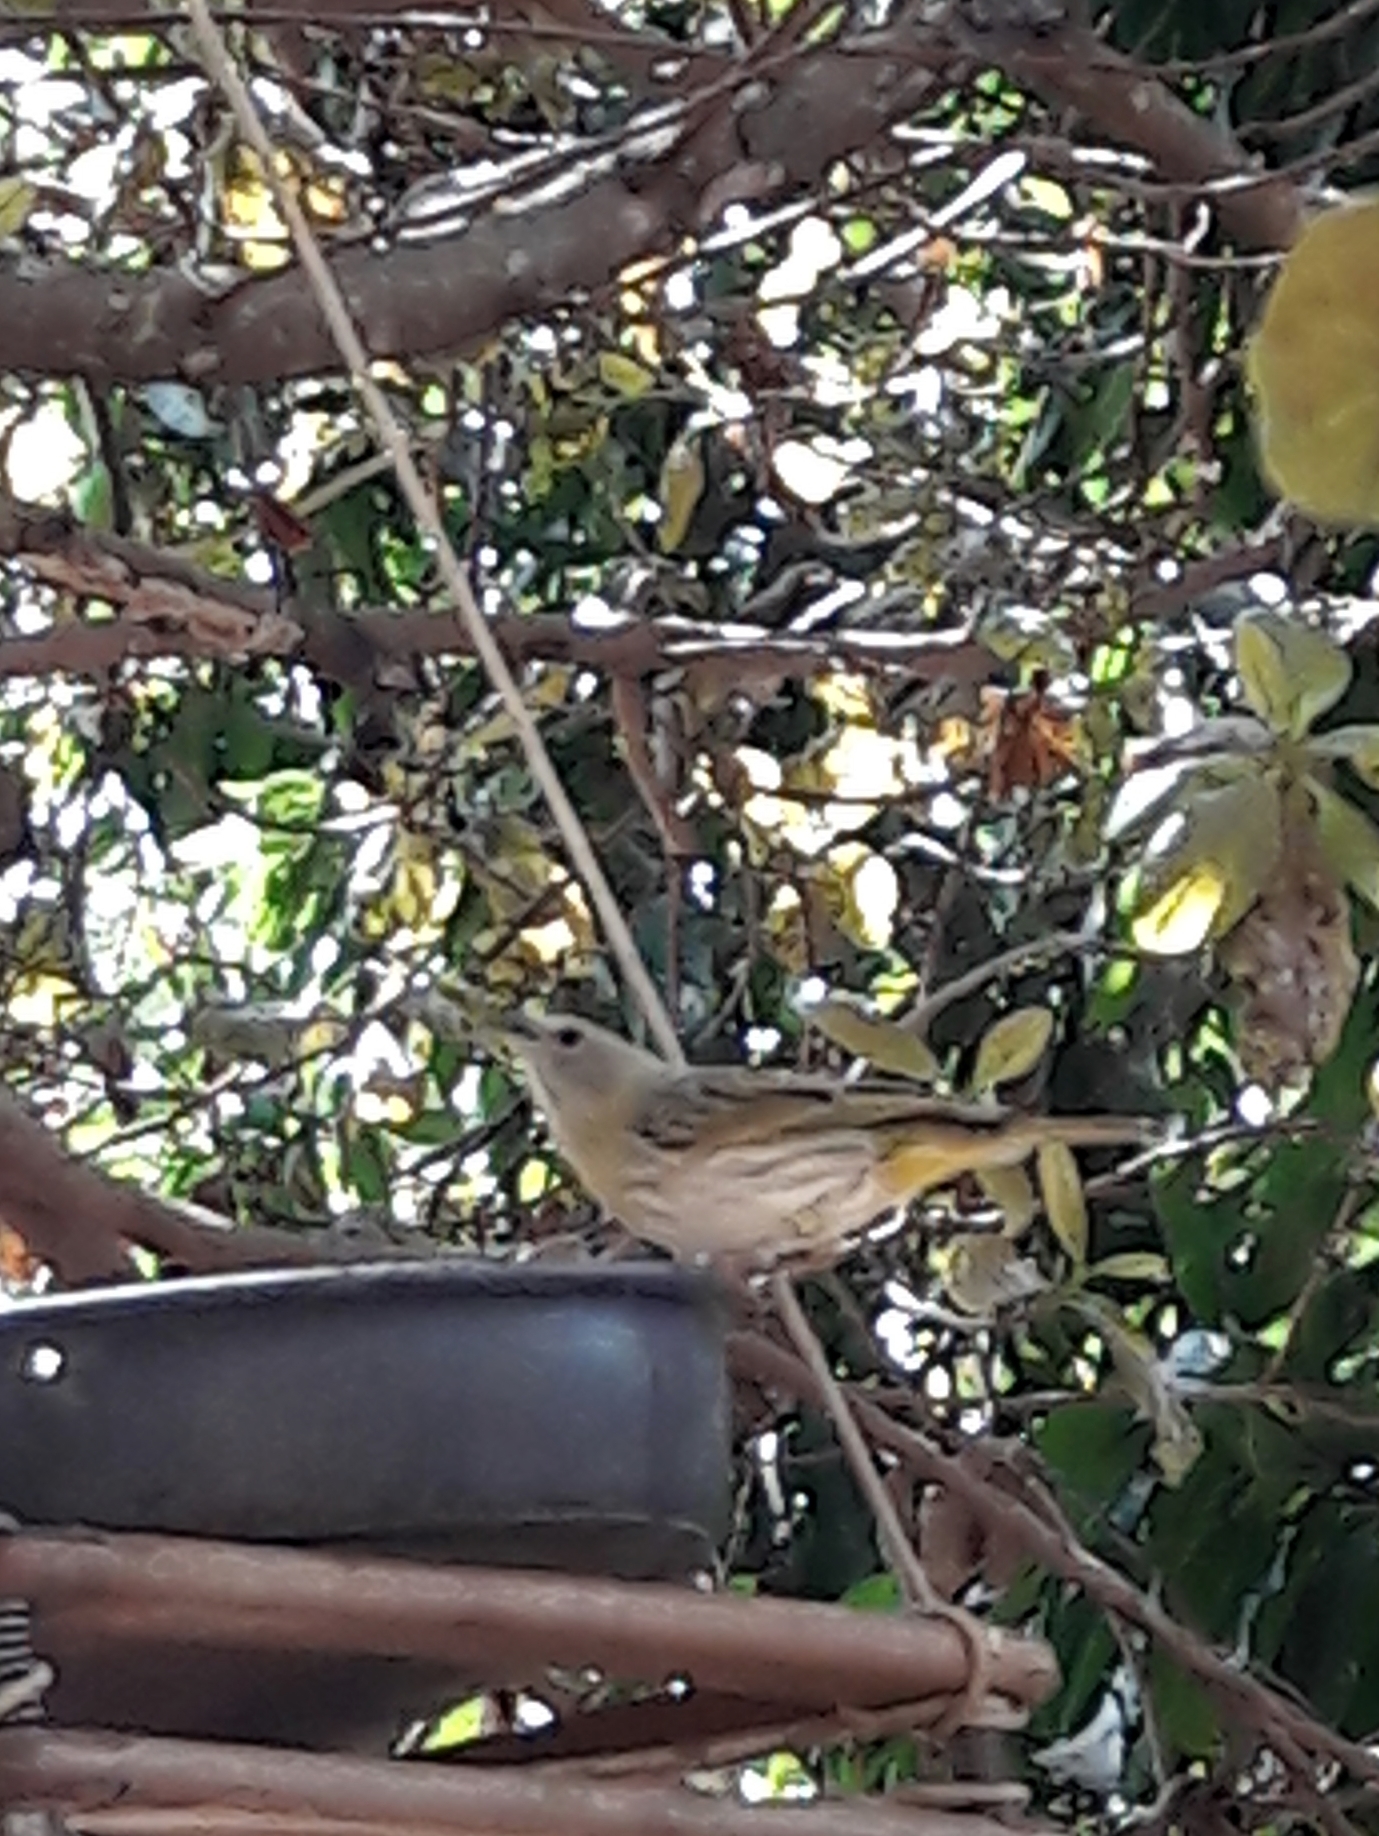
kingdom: Animalia
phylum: Chordata
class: Aves
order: Passeriformes
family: Thraupidae
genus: Sicalis
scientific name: Sicalis flaveola
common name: Saffron finch
